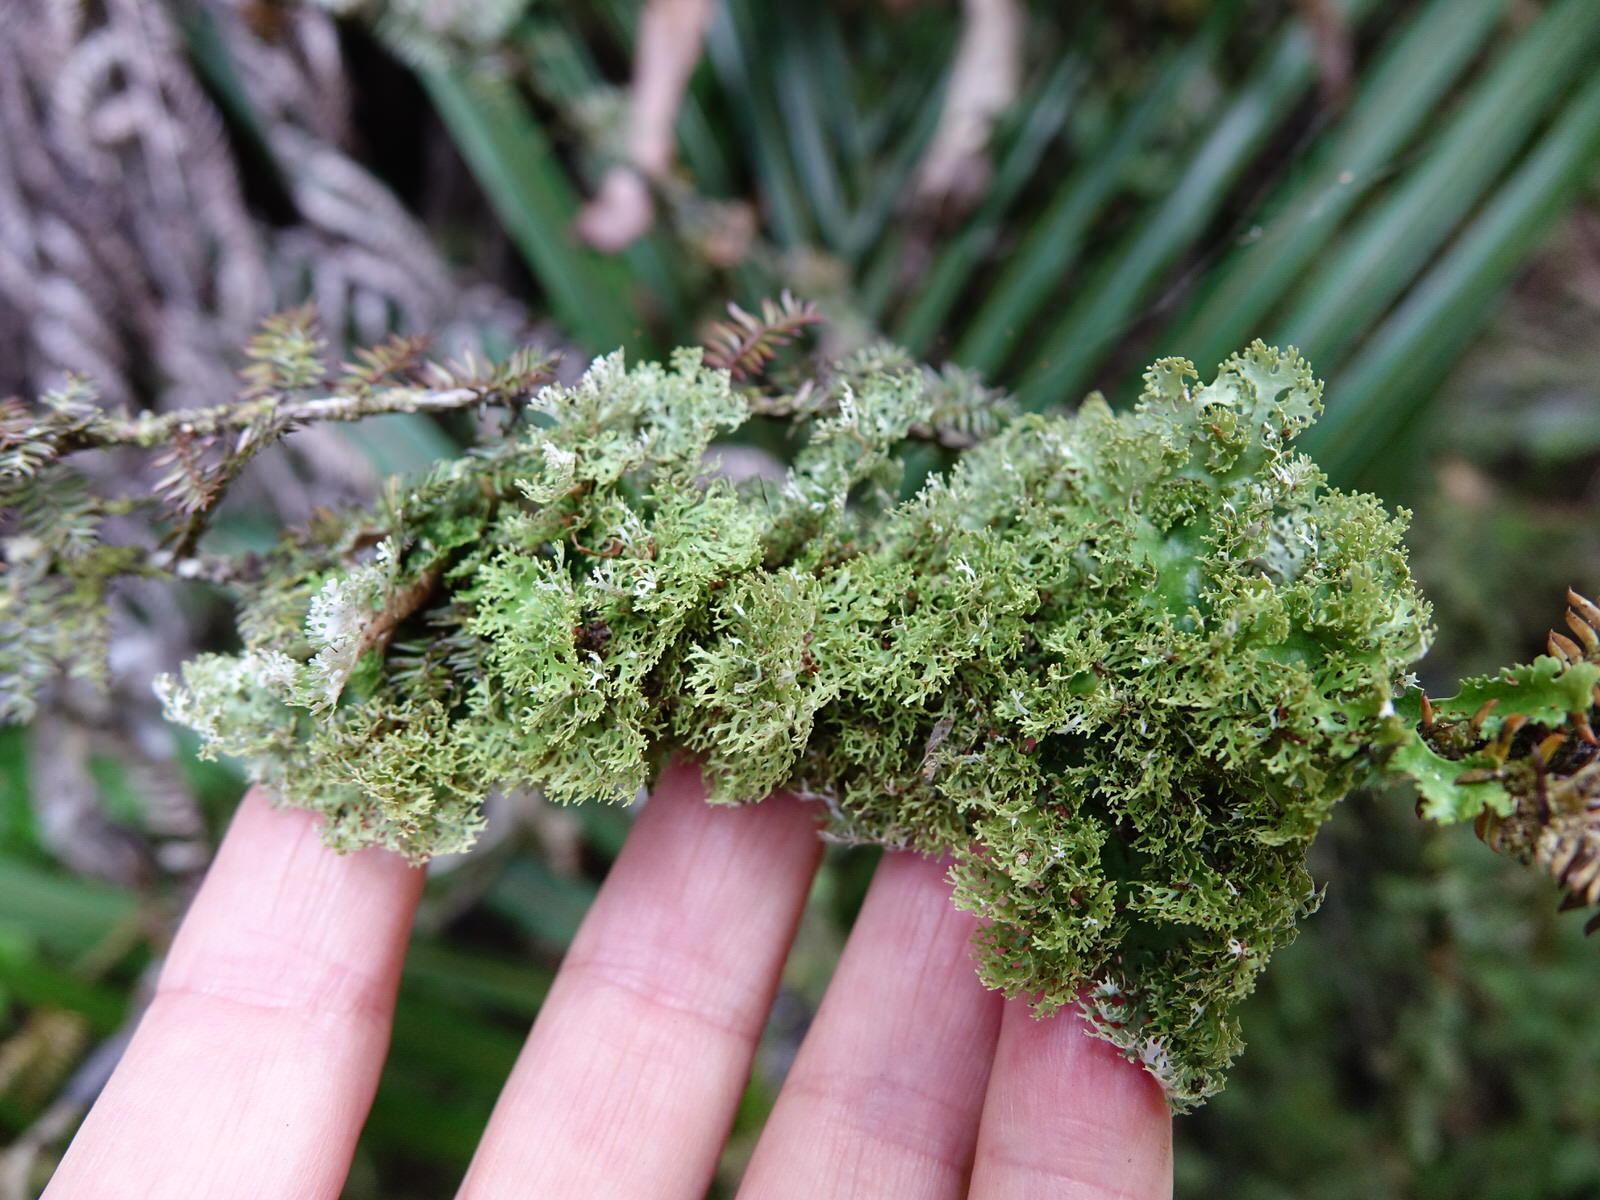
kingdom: Fungi
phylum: Ascomycota
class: Lecanoromycetes
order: Peltigerales
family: Lobariaceae
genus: Pseudocyphellaria
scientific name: Pseudocyphellaria multifida
